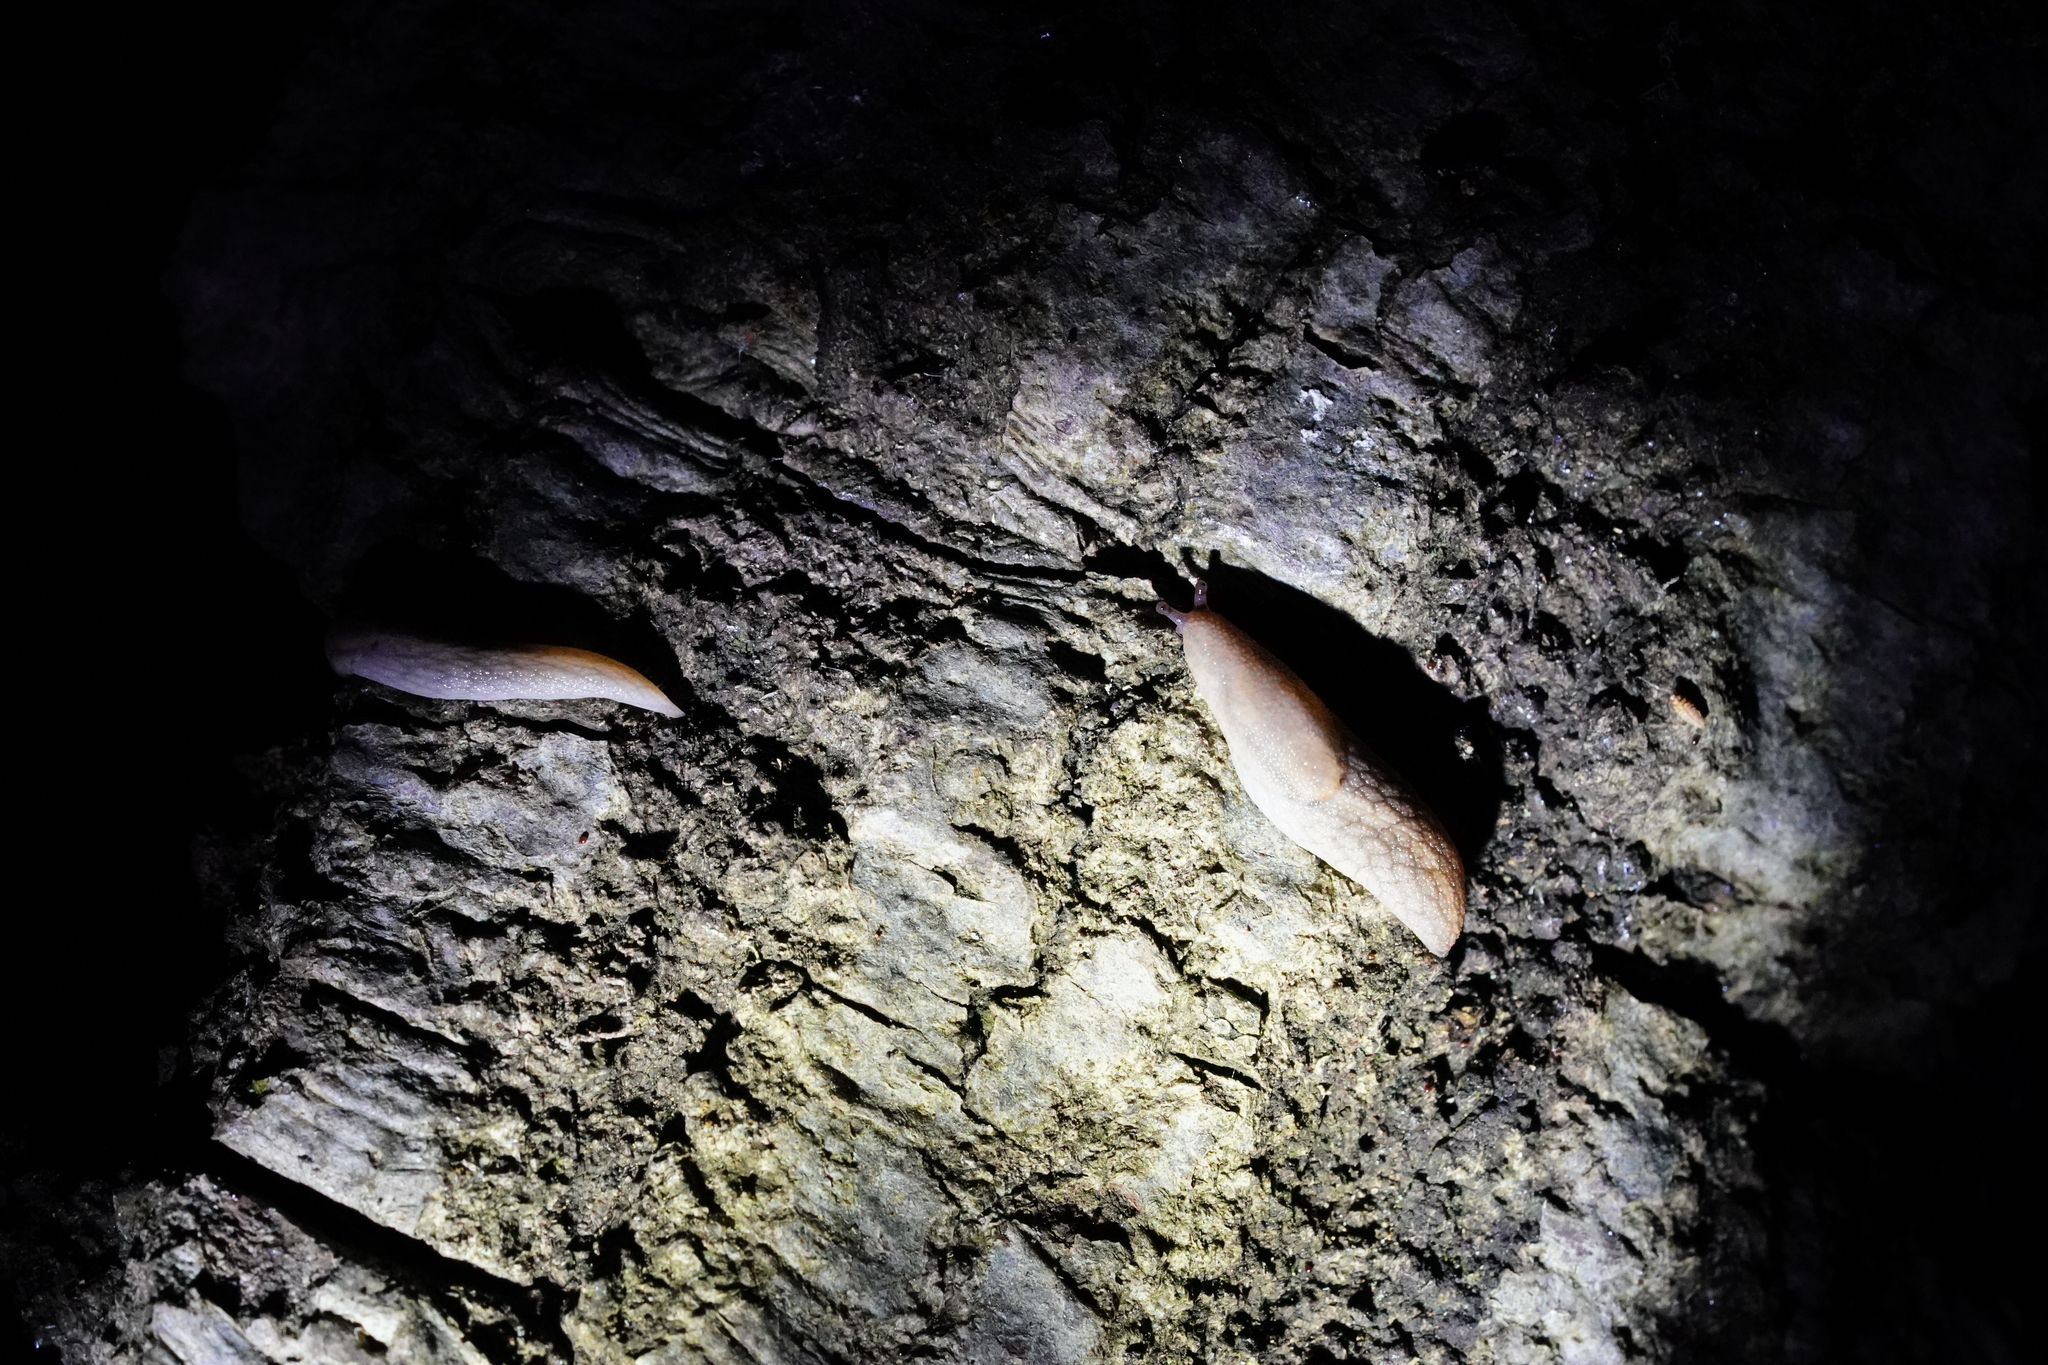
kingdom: Animalia
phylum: Mollusca
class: Gastropoda
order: Stylommatophora
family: Ariolimacidae
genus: Prophysaon
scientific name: Prophysaon andersonii
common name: Reticulate taildropper
